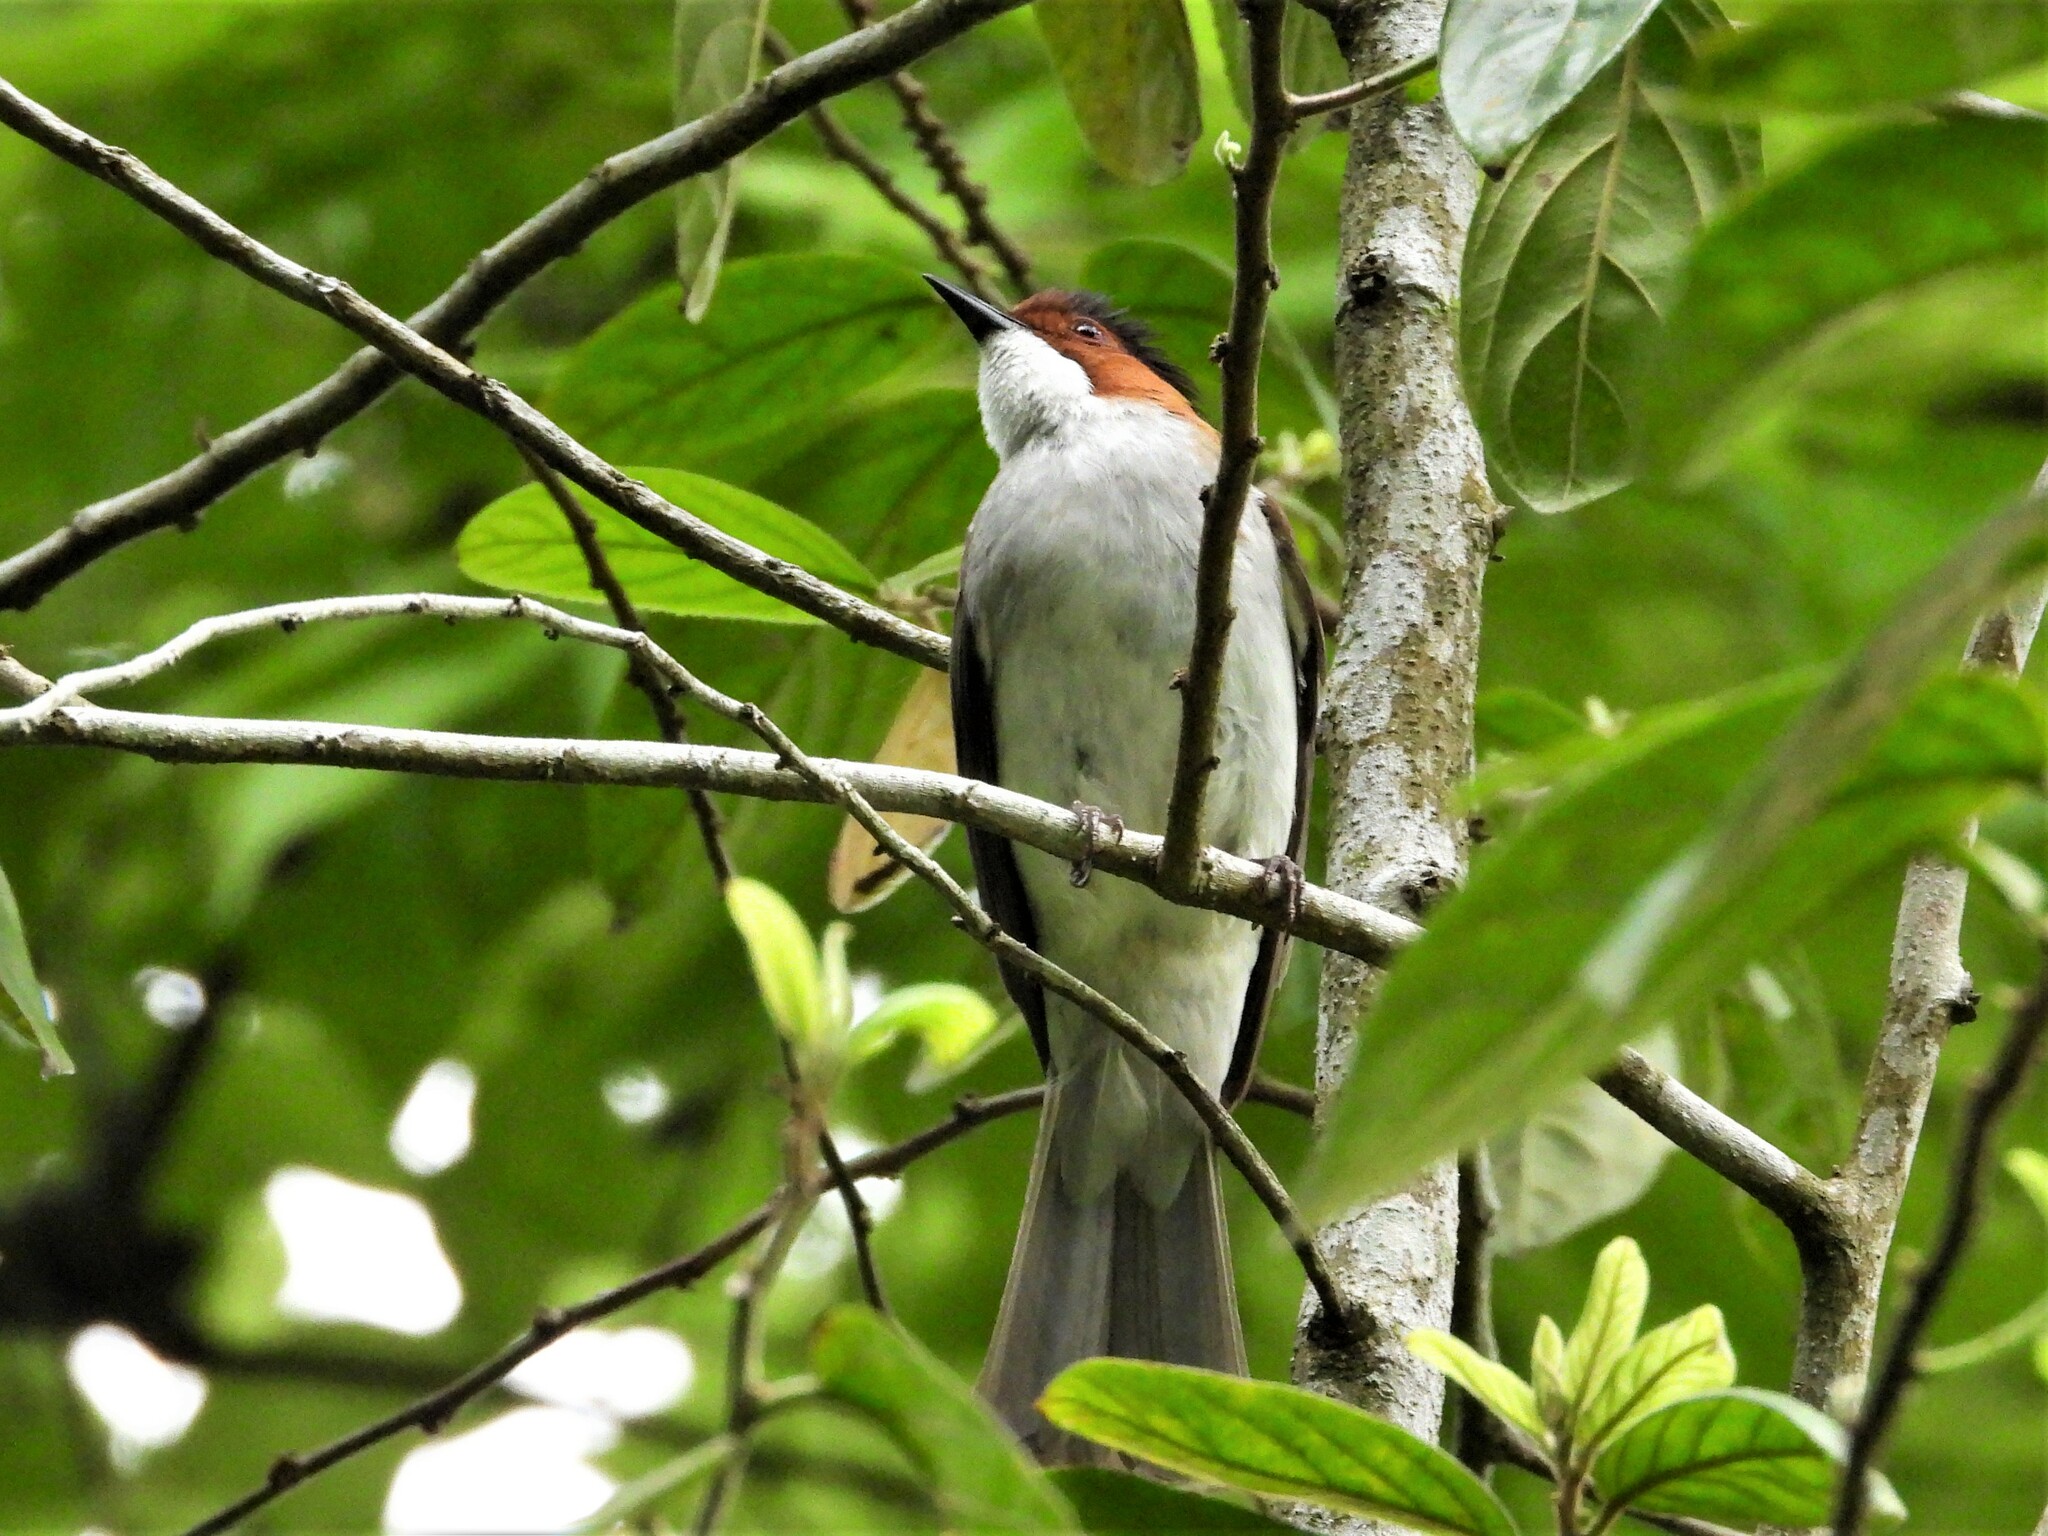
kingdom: Animalia
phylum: Chordata
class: Aves
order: Passeriformes
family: Pycnonotidae
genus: Hemixos
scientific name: Hemixos castanonotus
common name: Chestnut bulbul
